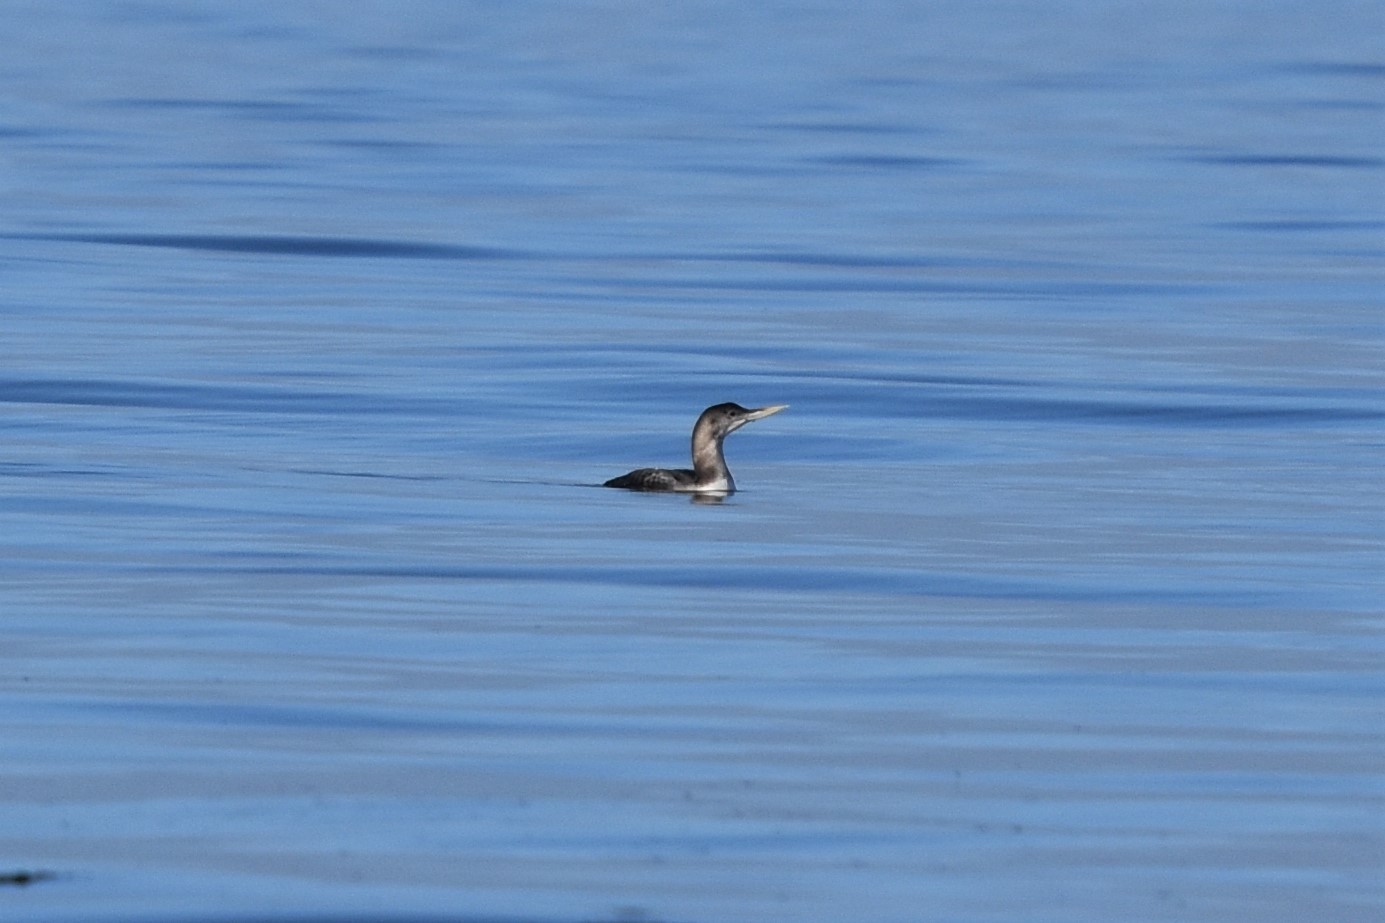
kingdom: Animalia
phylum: Chordata
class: Aves
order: Gaviiformes
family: Gaviidae
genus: Gavia
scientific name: Gavia adamsii
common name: Yellow-billed loon
